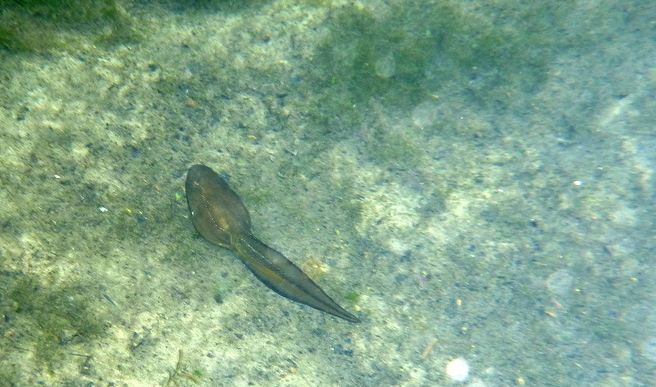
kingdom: Animalia
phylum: Chordata
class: Amphibia
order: Anura
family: Ranidae
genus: Lithobates
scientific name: Lithobates heckscheri
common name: River frog
